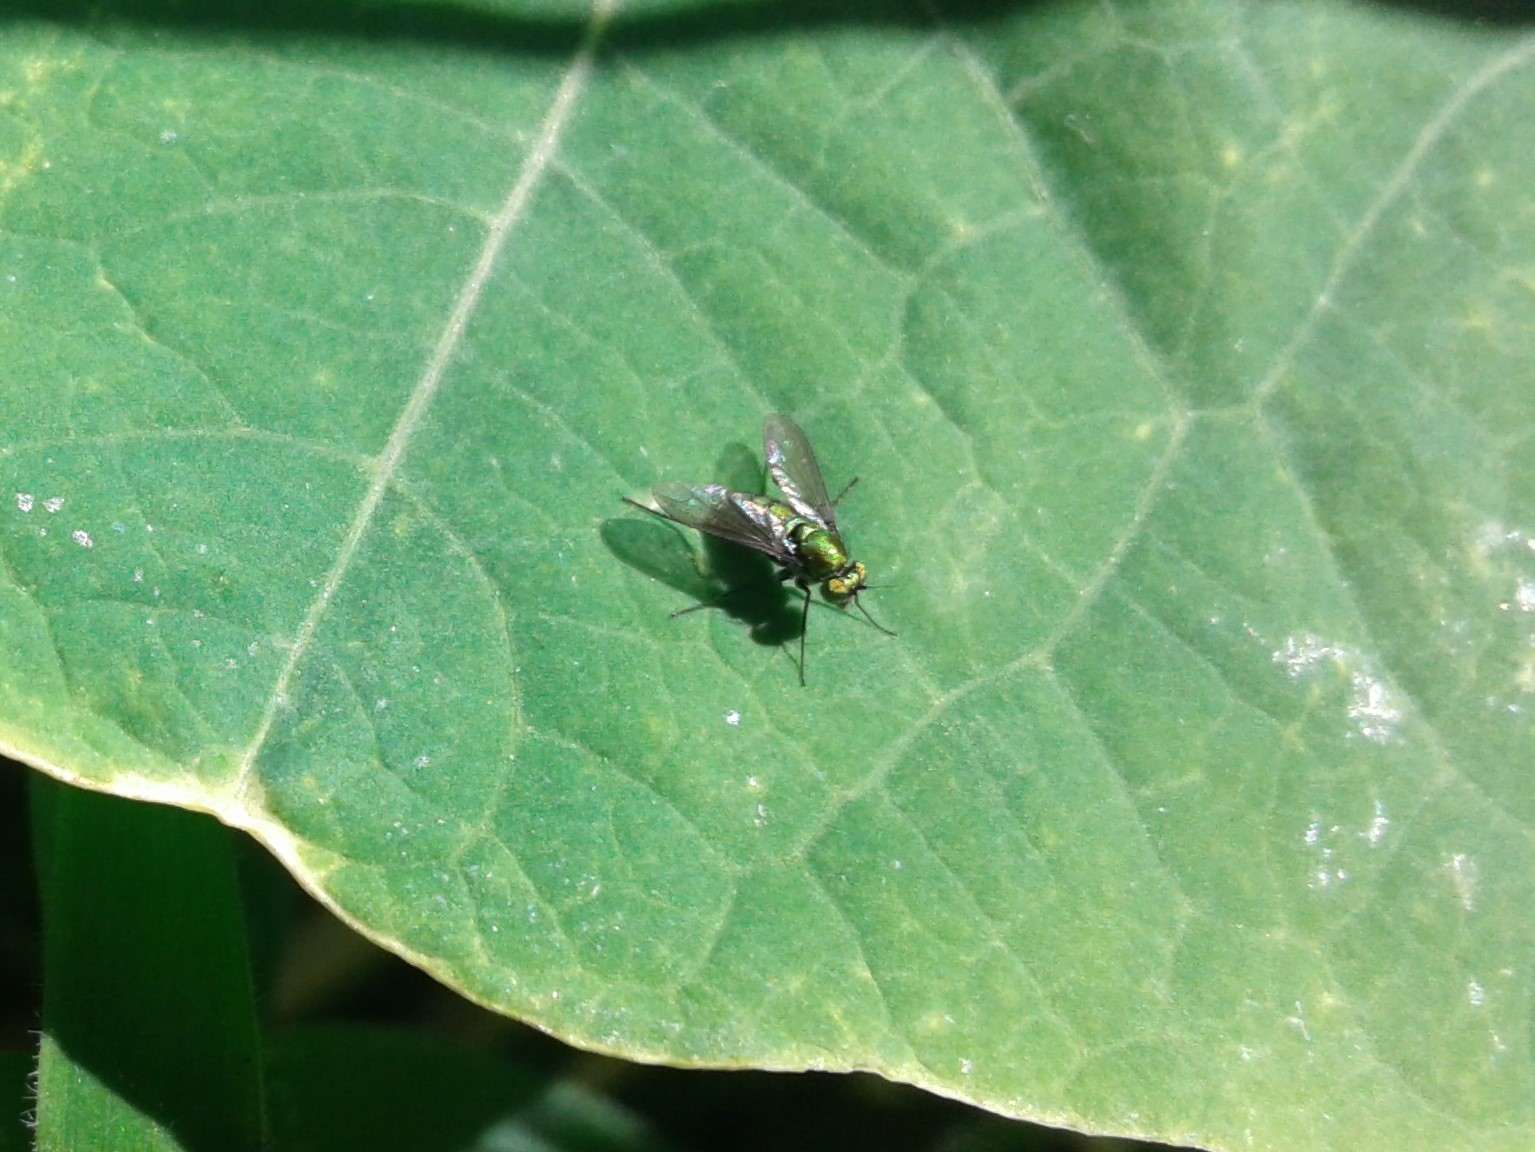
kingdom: Animalia
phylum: Arthropoda
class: Insecta
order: Diptera
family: Dolichopodidae
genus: Parentia
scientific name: Parentia
